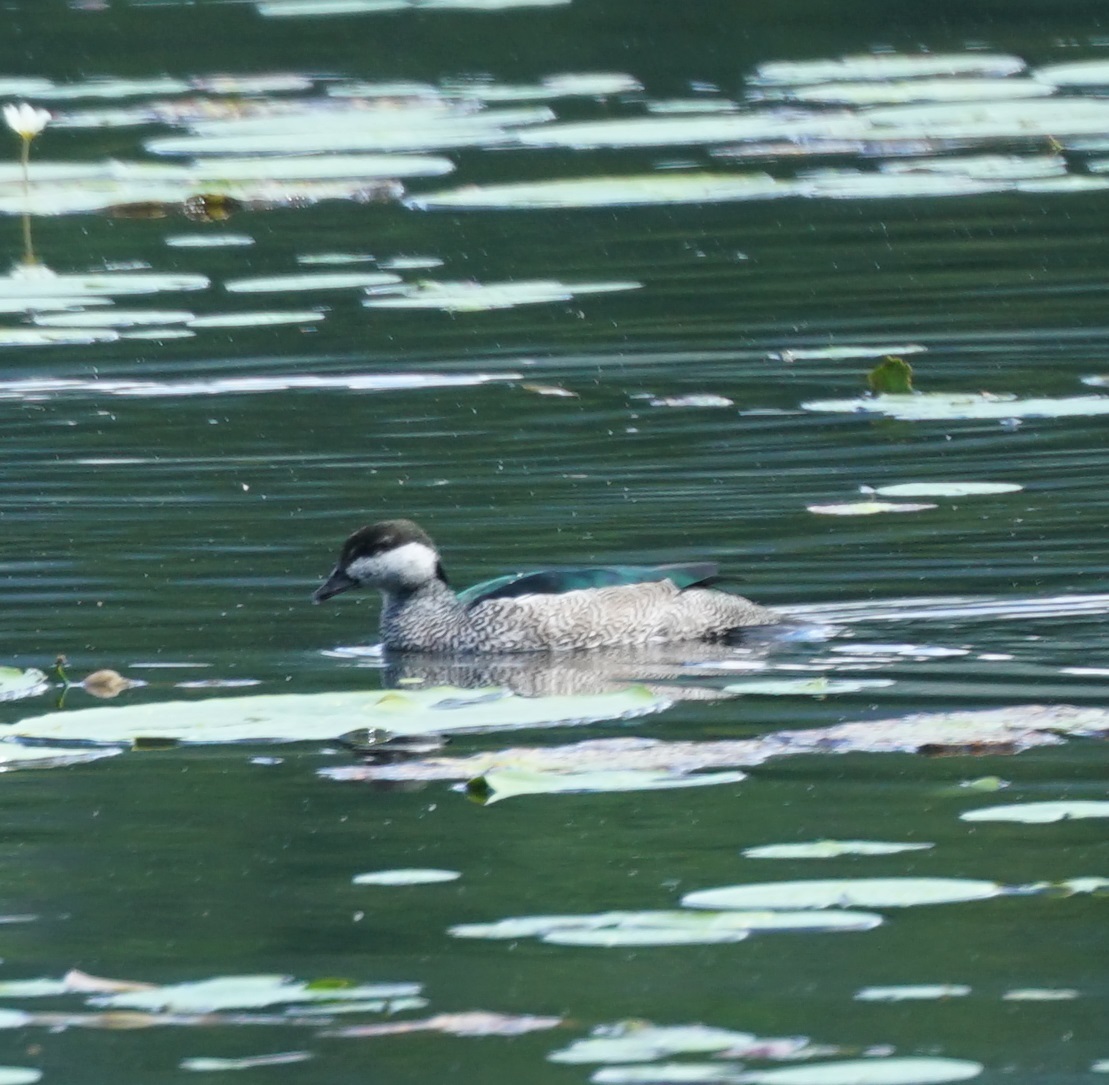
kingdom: Animalia
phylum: Chordata
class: Aves
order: Anseriformes
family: Anatidae
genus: Nettapus
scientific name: Nettapus pulchellus
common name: Green pygmy-goose
